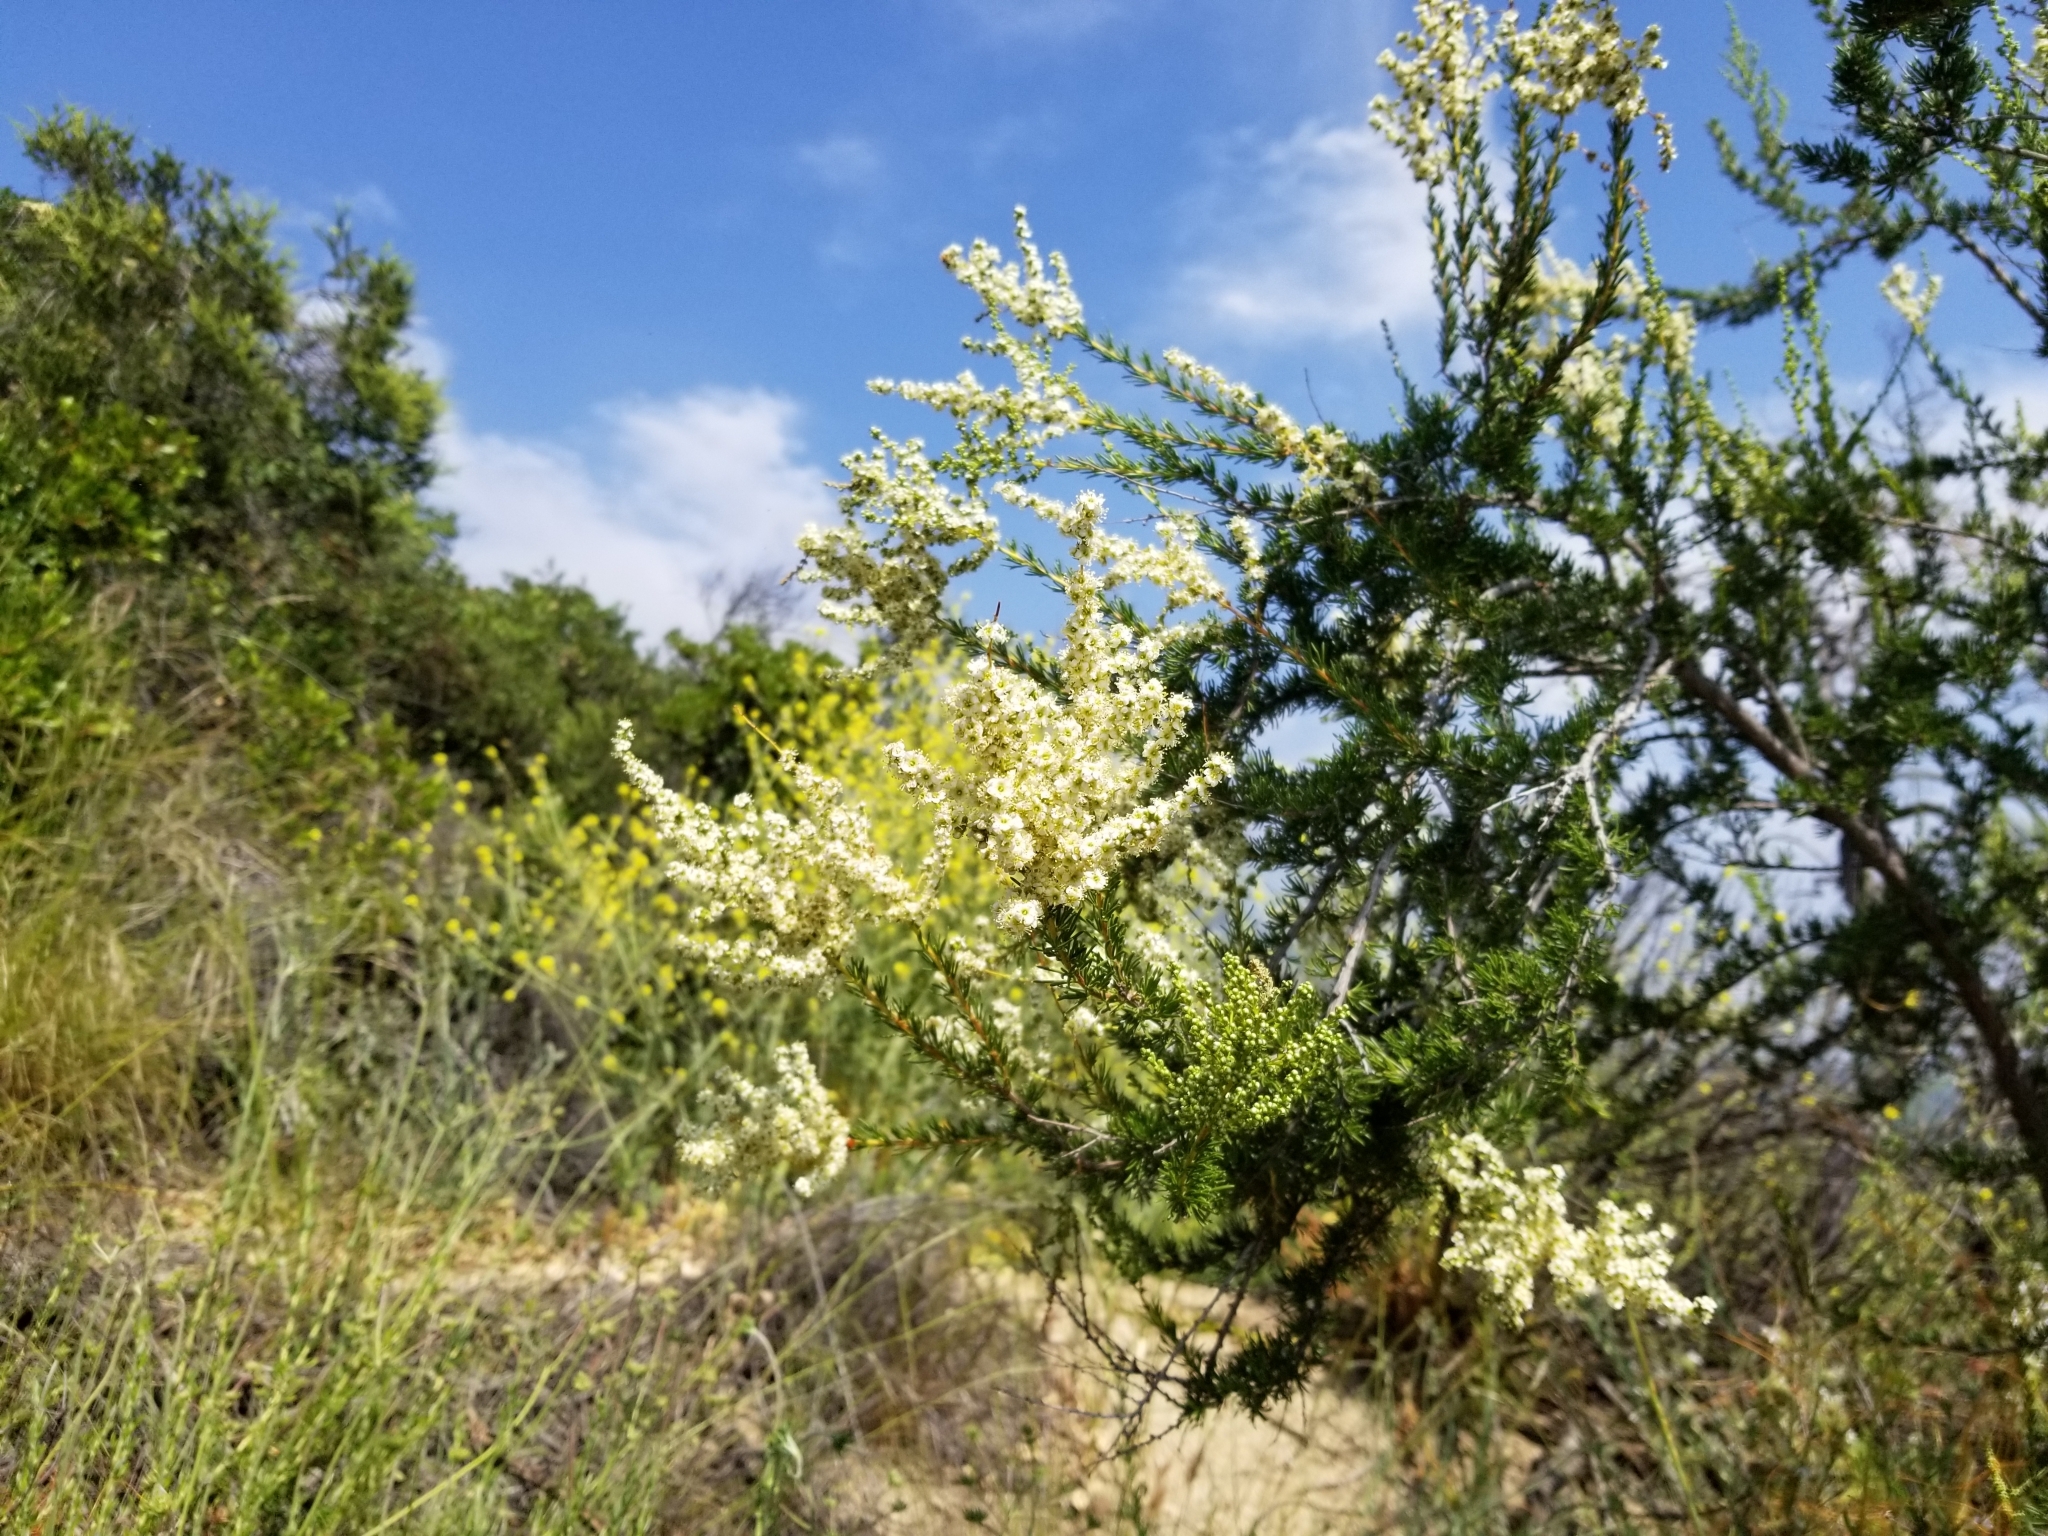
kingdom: Plantae
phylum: Tracheophyta
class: Magnoliopsida
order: Rosales
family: Rosaceae
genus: Adenostoma
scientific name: Adenostoma fasciculatum
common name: Chamise
